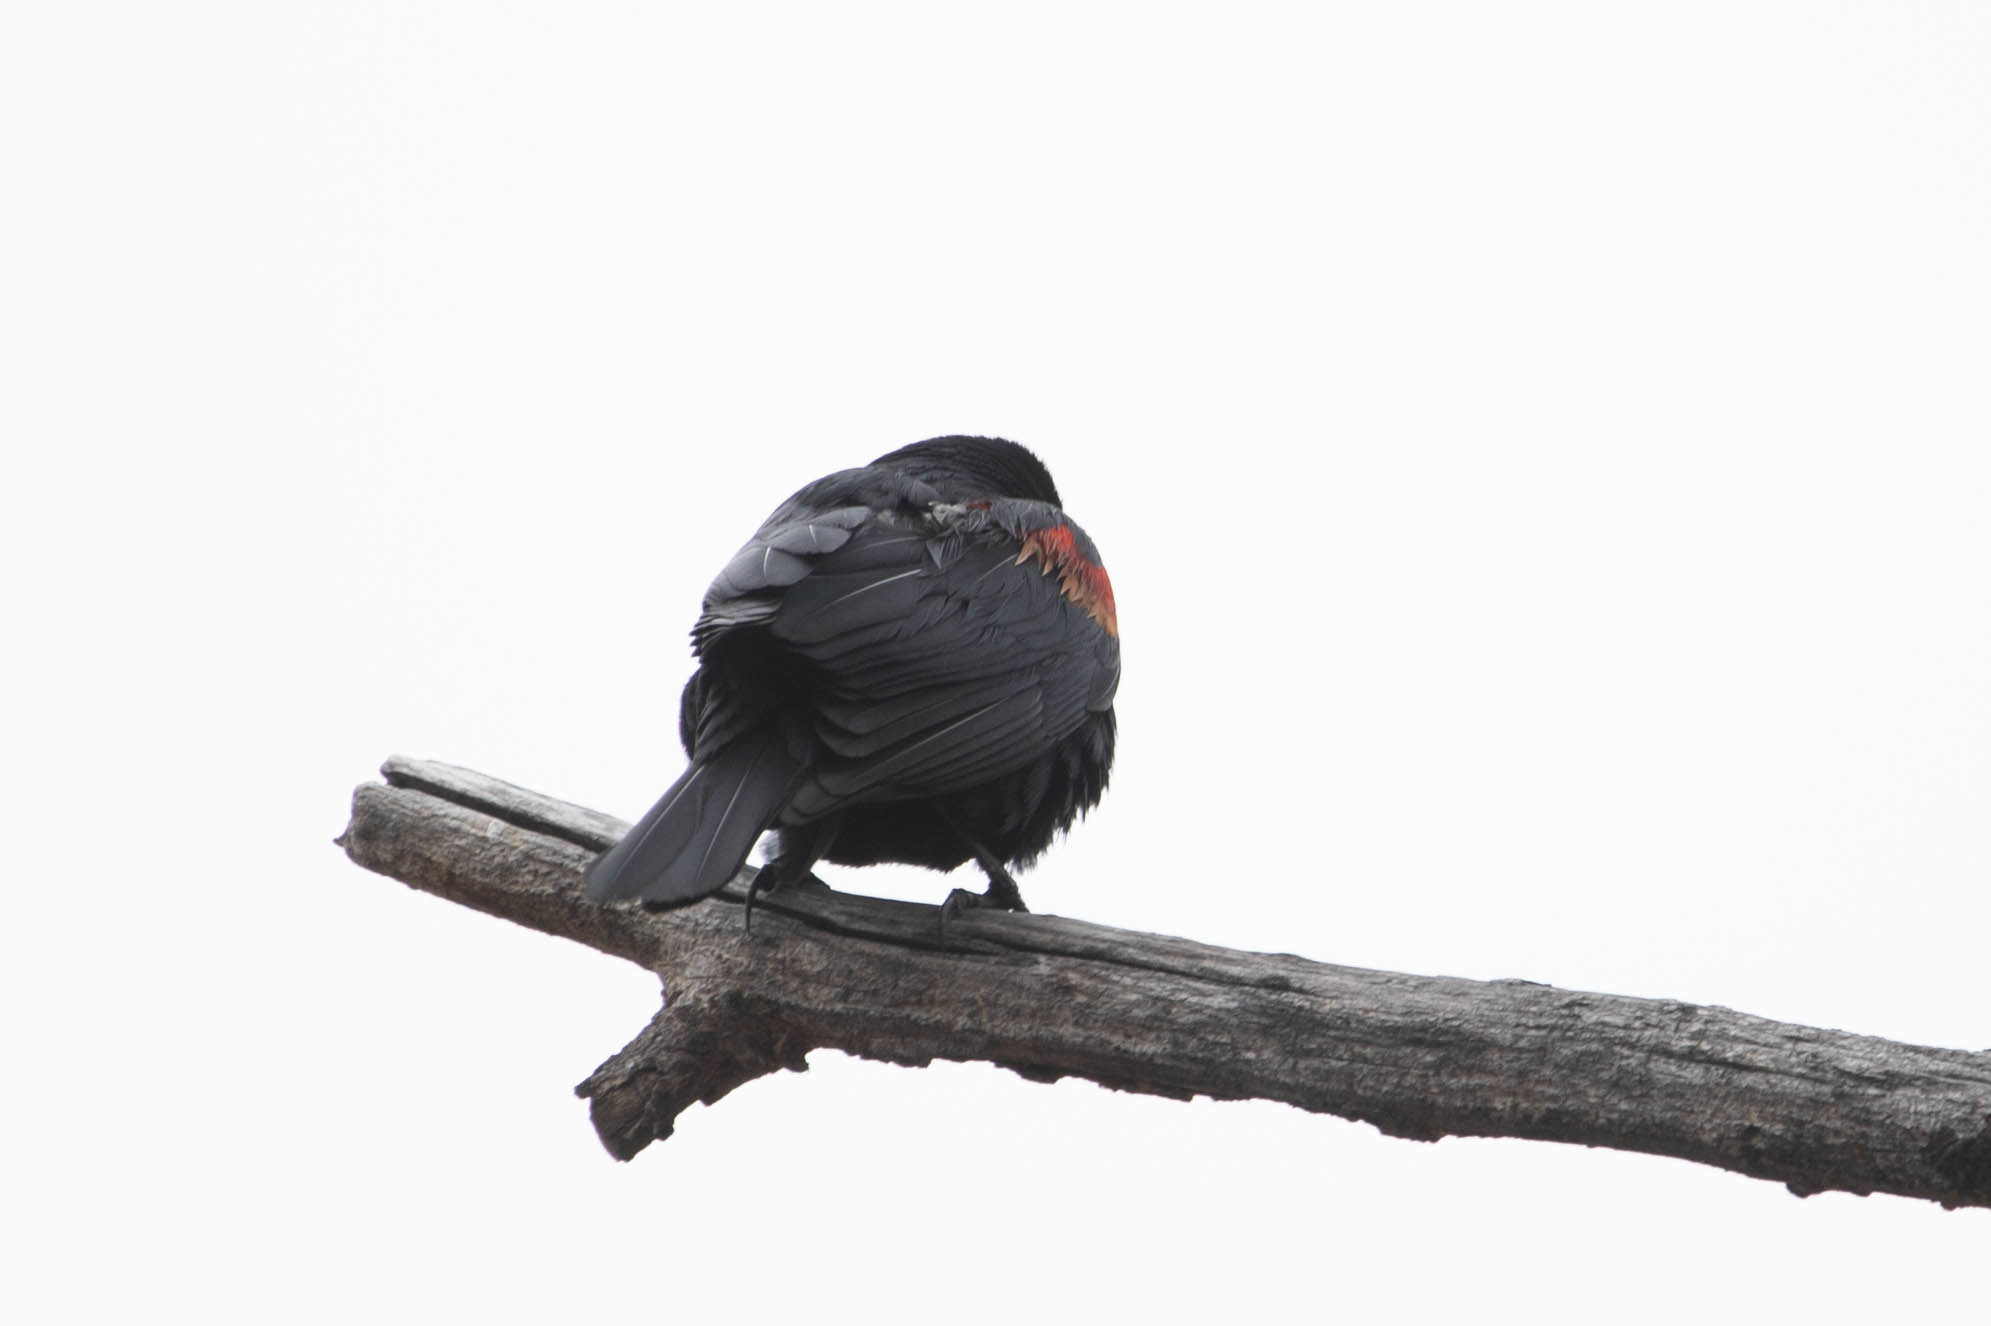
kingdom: Animalia
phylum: Chordata
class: Aves
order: Passeriformes
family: Icteridae
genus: Agelaius
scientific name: Agelaius phoeniceus
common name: Red-winged blackbird
